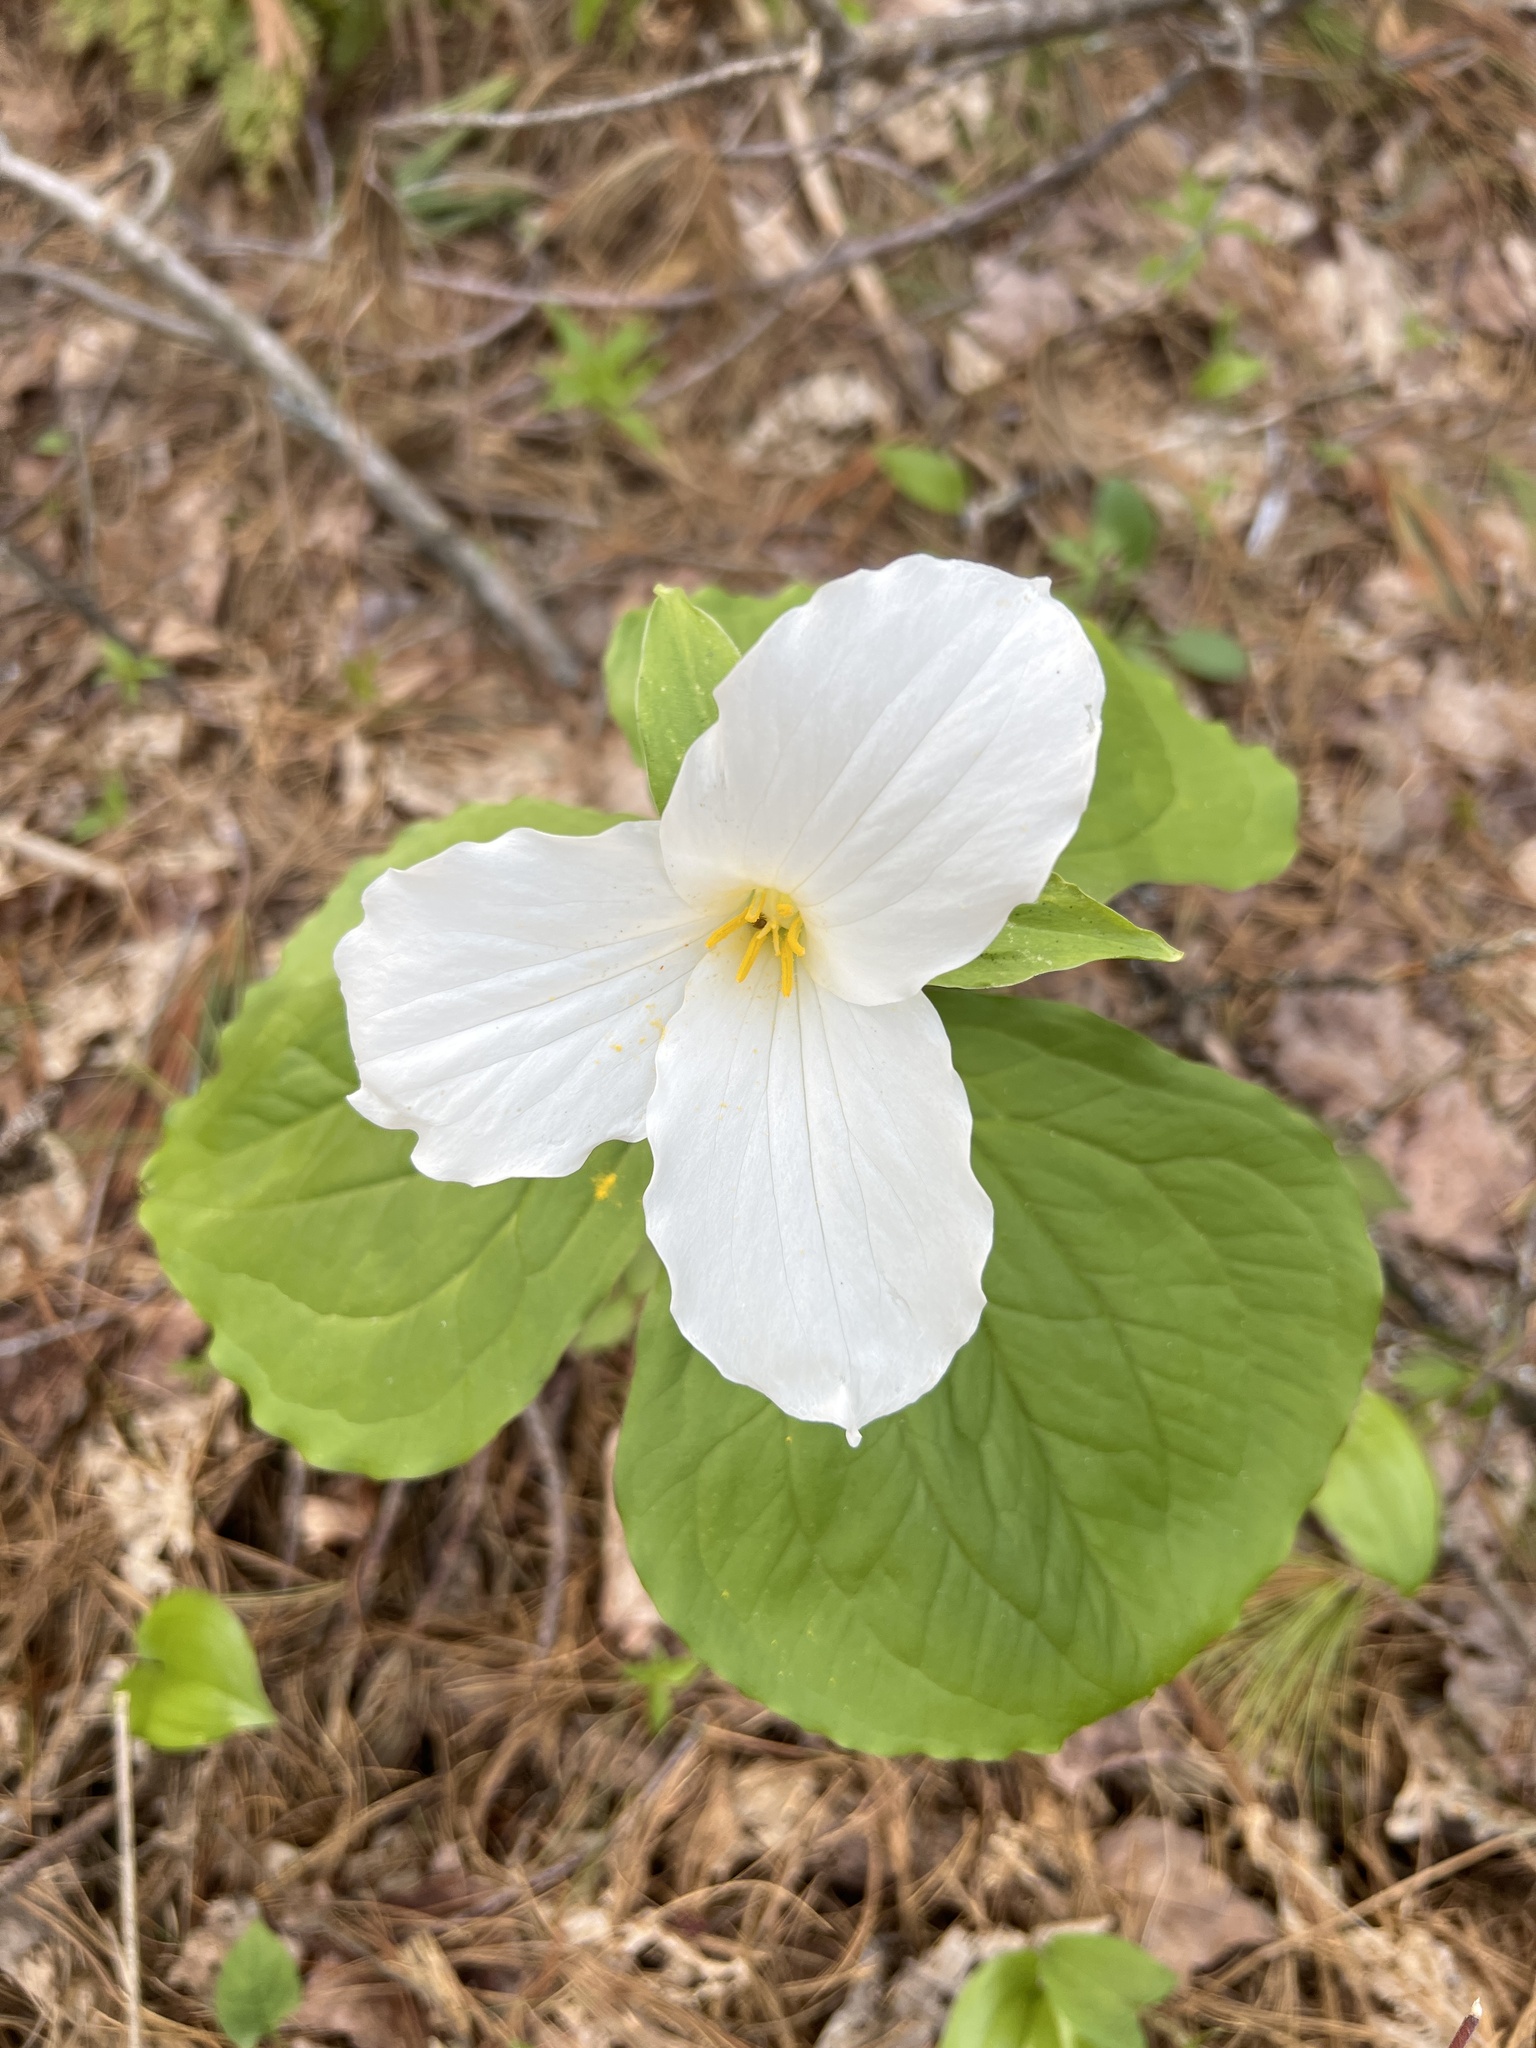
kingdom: Plantae
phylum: Tracheophyta
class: Liliopsida
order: Liliales
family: Melanthiaceae
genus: Trillium
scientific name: Trillium grandiflorum
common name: Great white trillium
